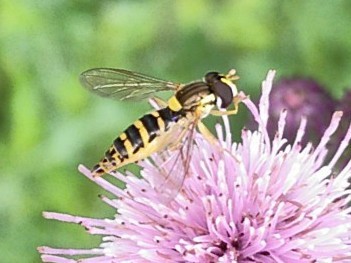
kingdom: Animalia
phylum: Arthropoda
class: Insecta
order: Diptera
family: Syrphidae
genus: Sphaerophoria
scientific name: Sphaerophoria
